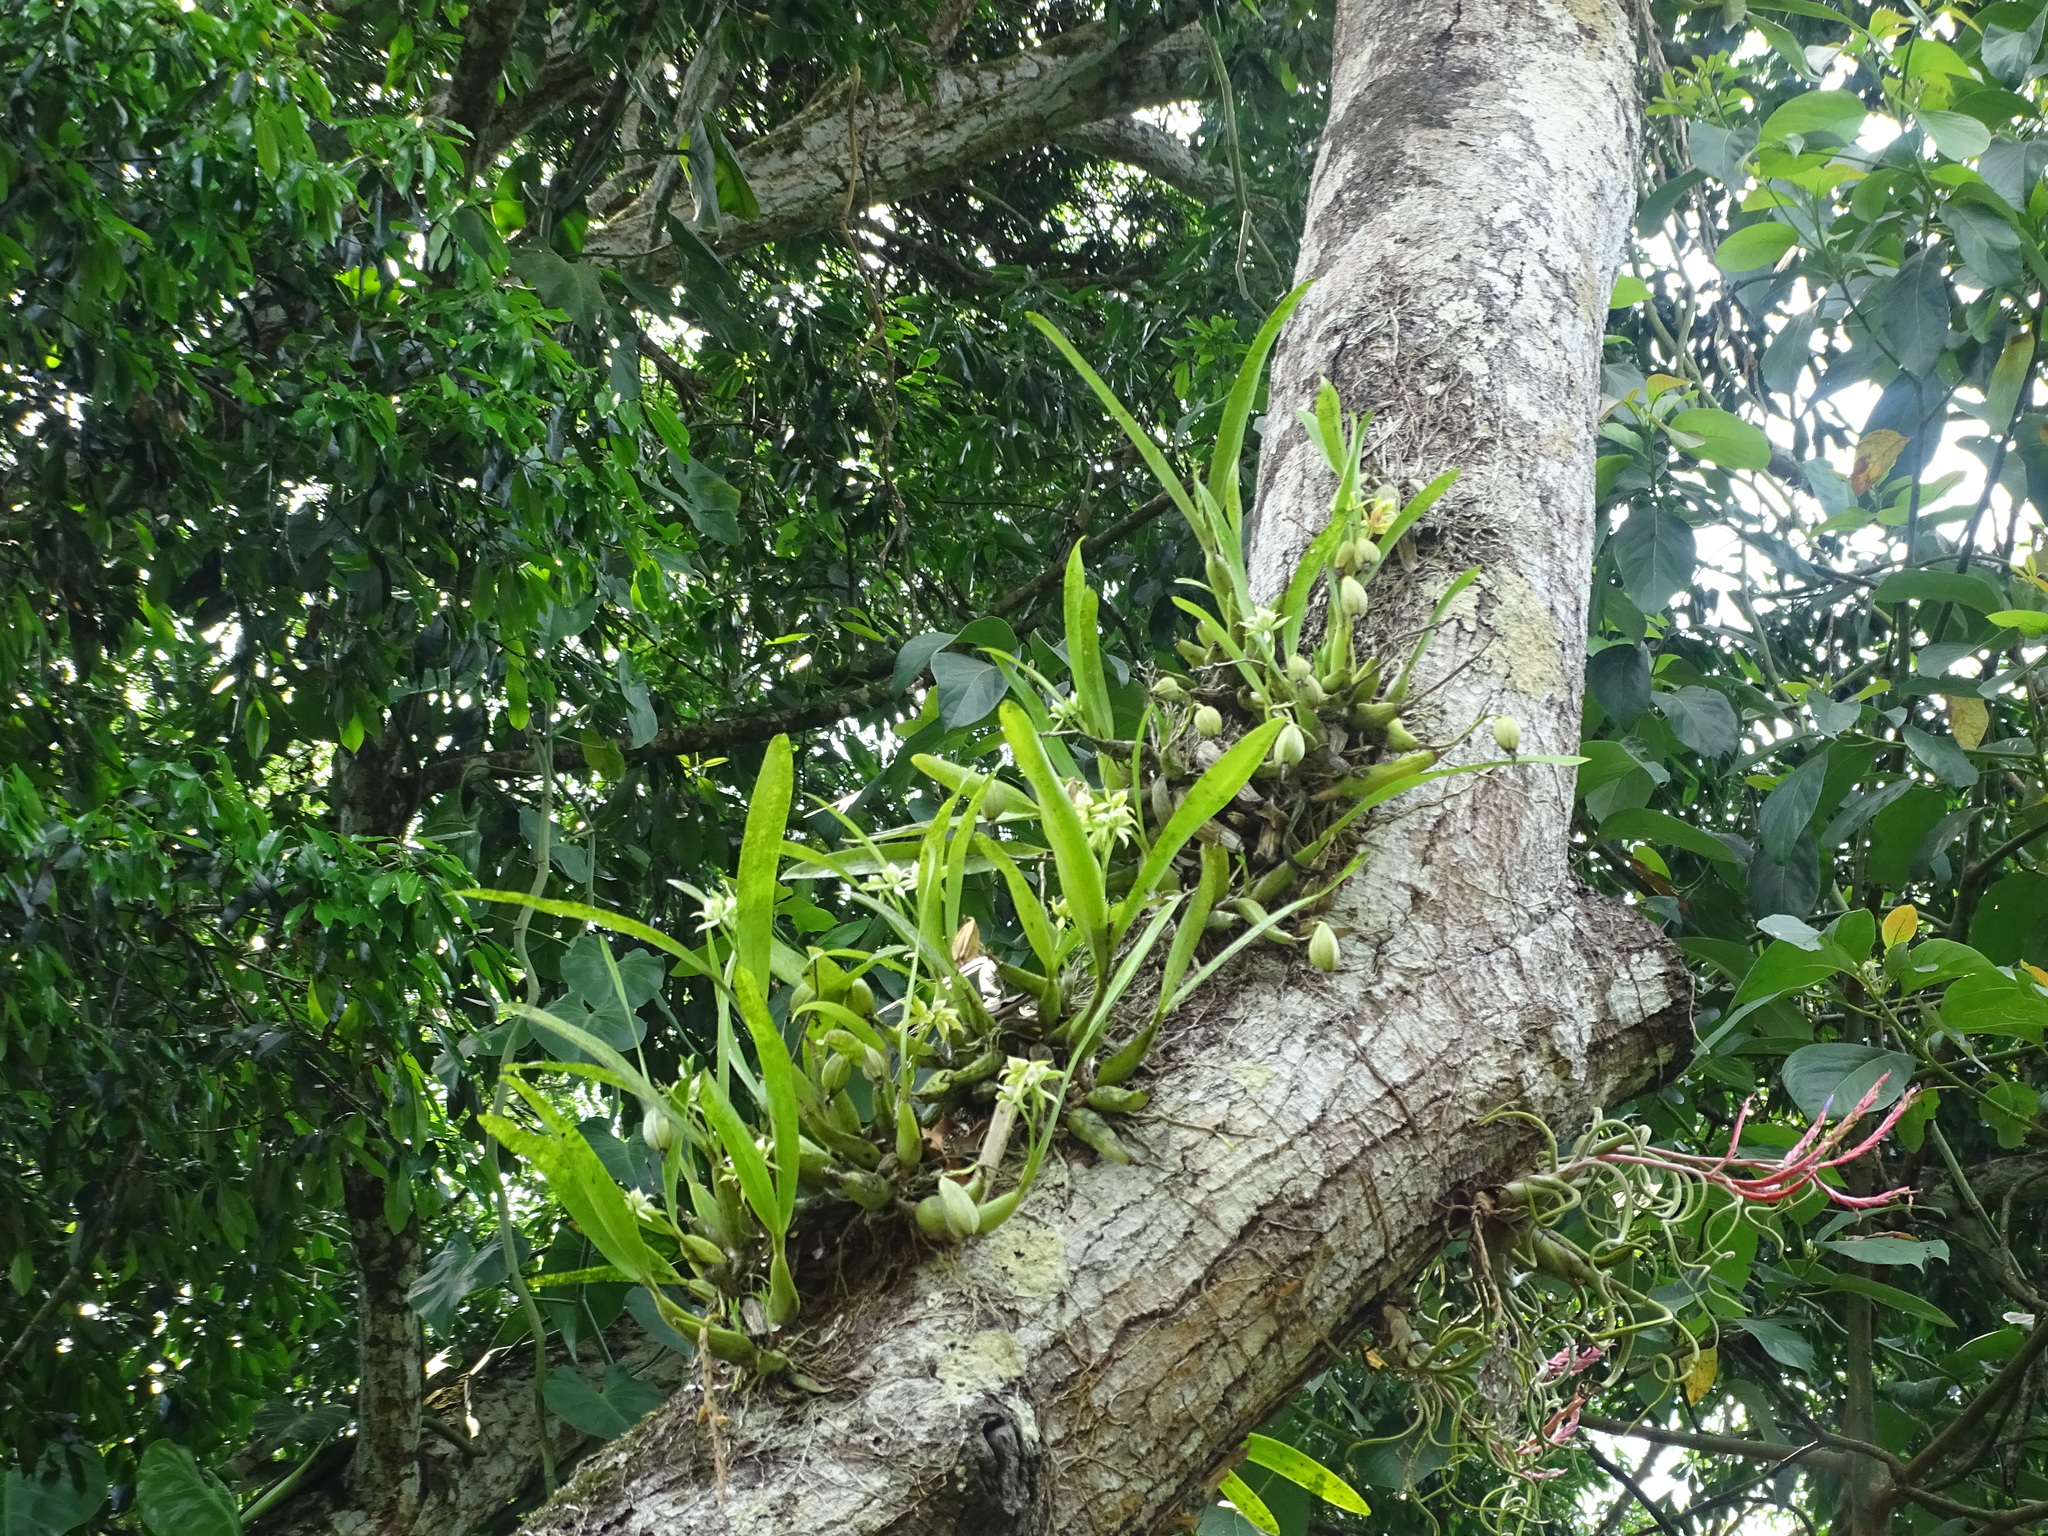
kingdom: Plantae
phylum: Tracheophyta
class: Liliopsida
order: Asparagales
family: Orchidaceae
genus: Prosthechea
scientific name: Prosthechea chacaoensis
